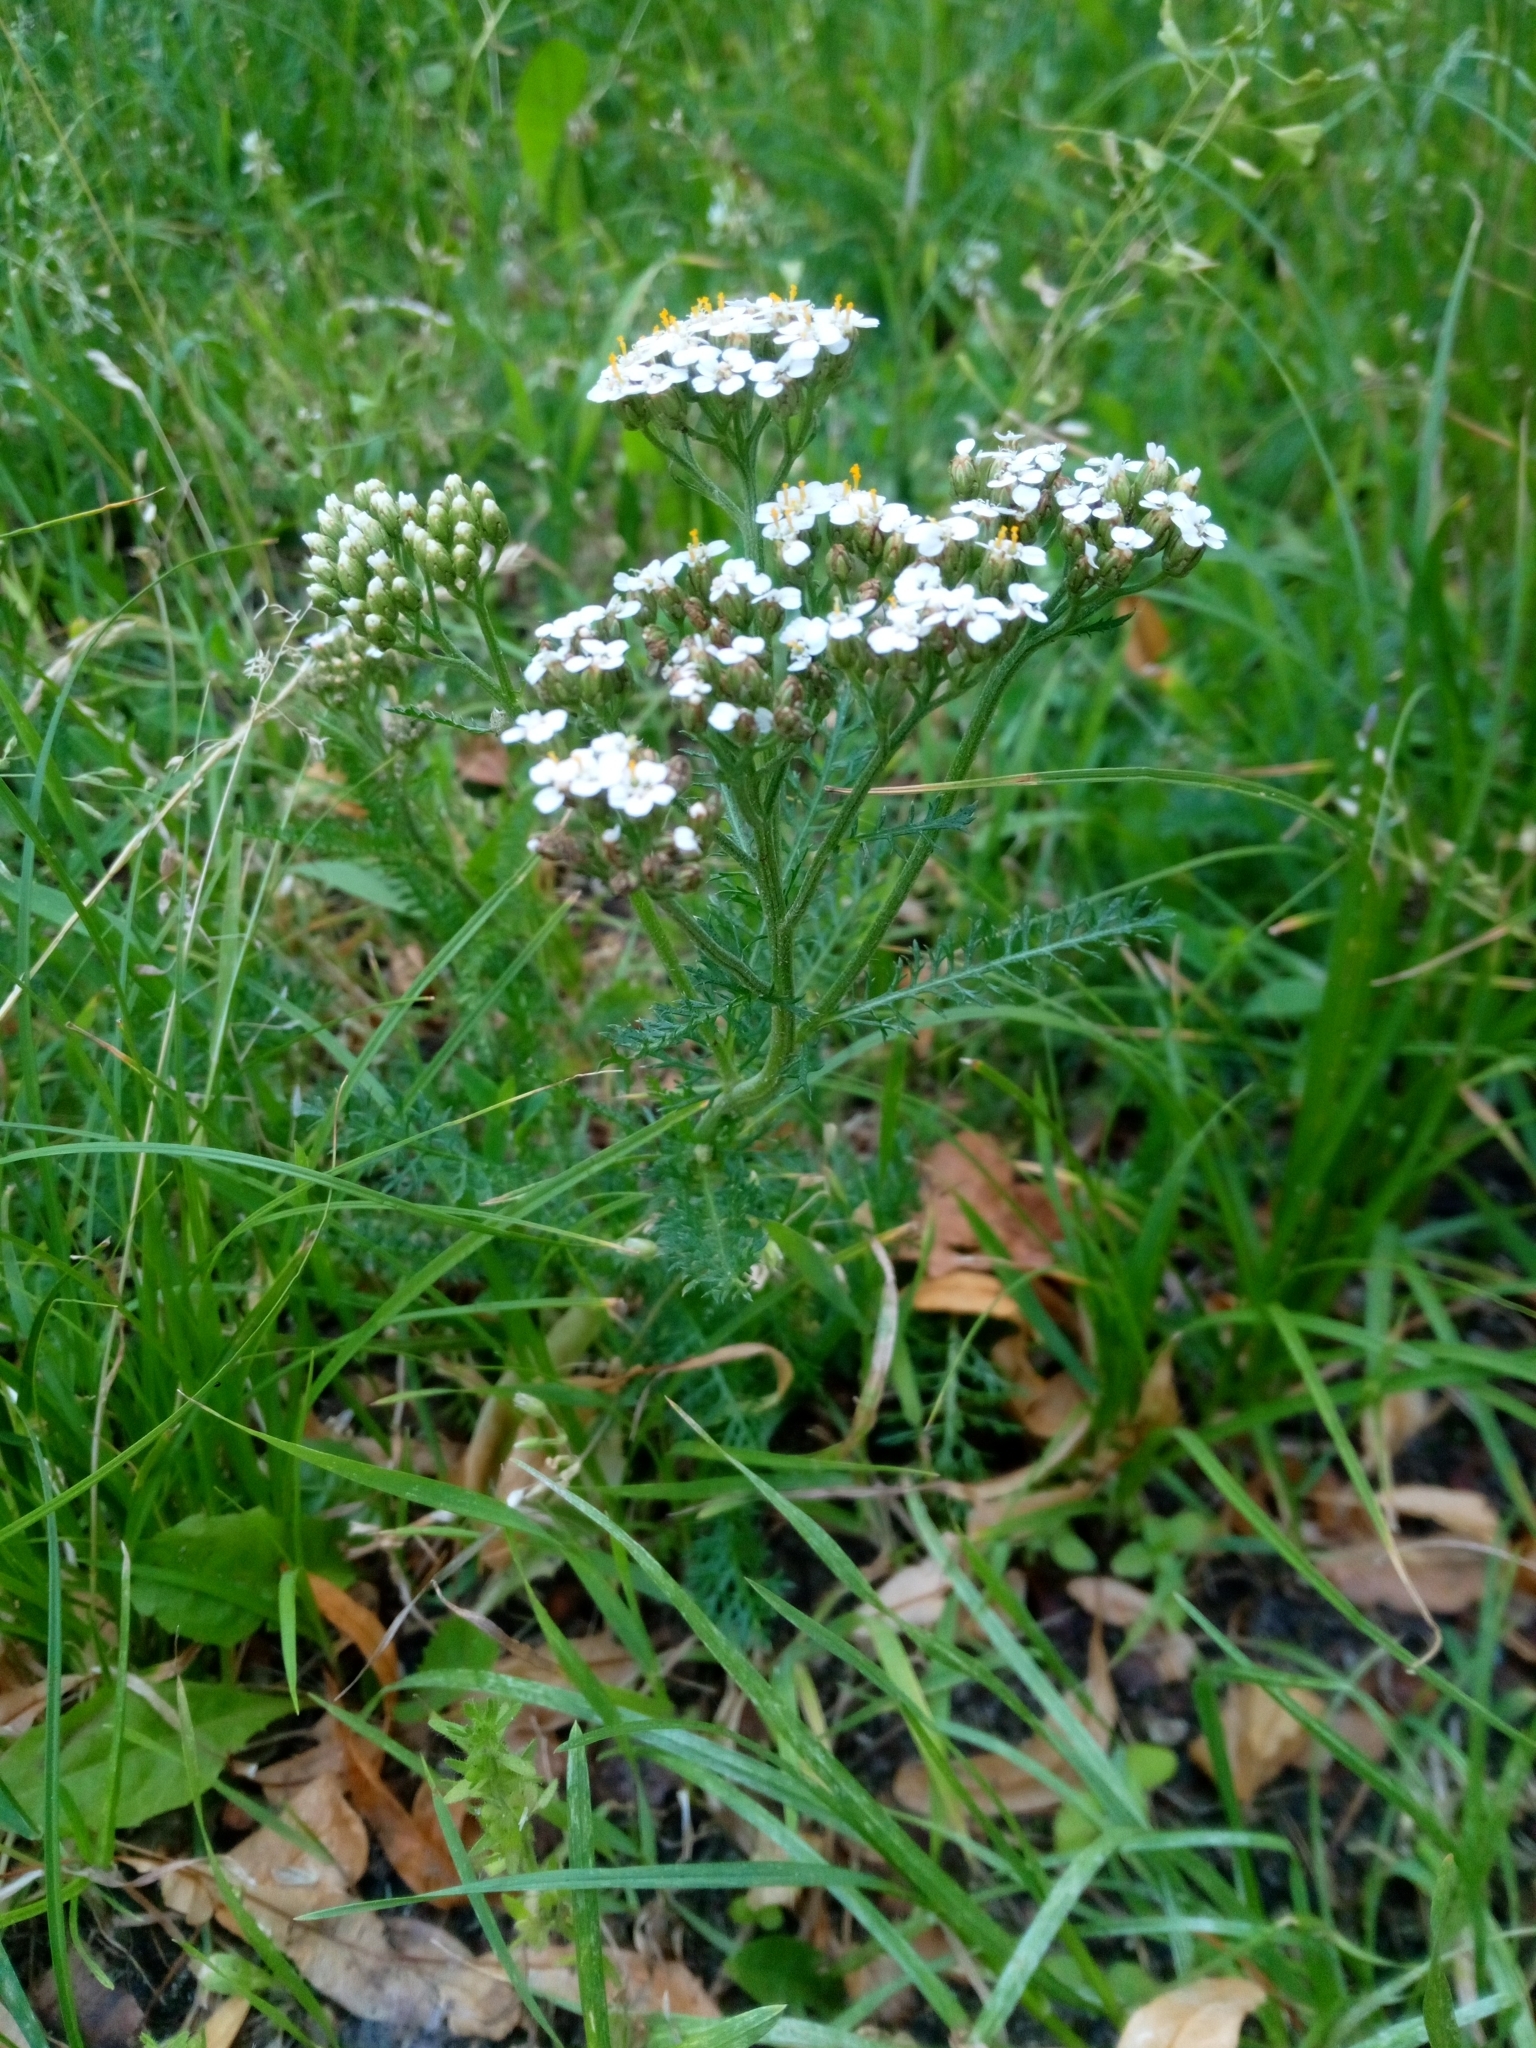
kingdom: Plantae
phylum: Tracheophyta
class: Magnoliopsida
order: Asterales
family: Asteraceae
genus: Achillea
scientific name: Achillea millefolium
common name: Yarrow
